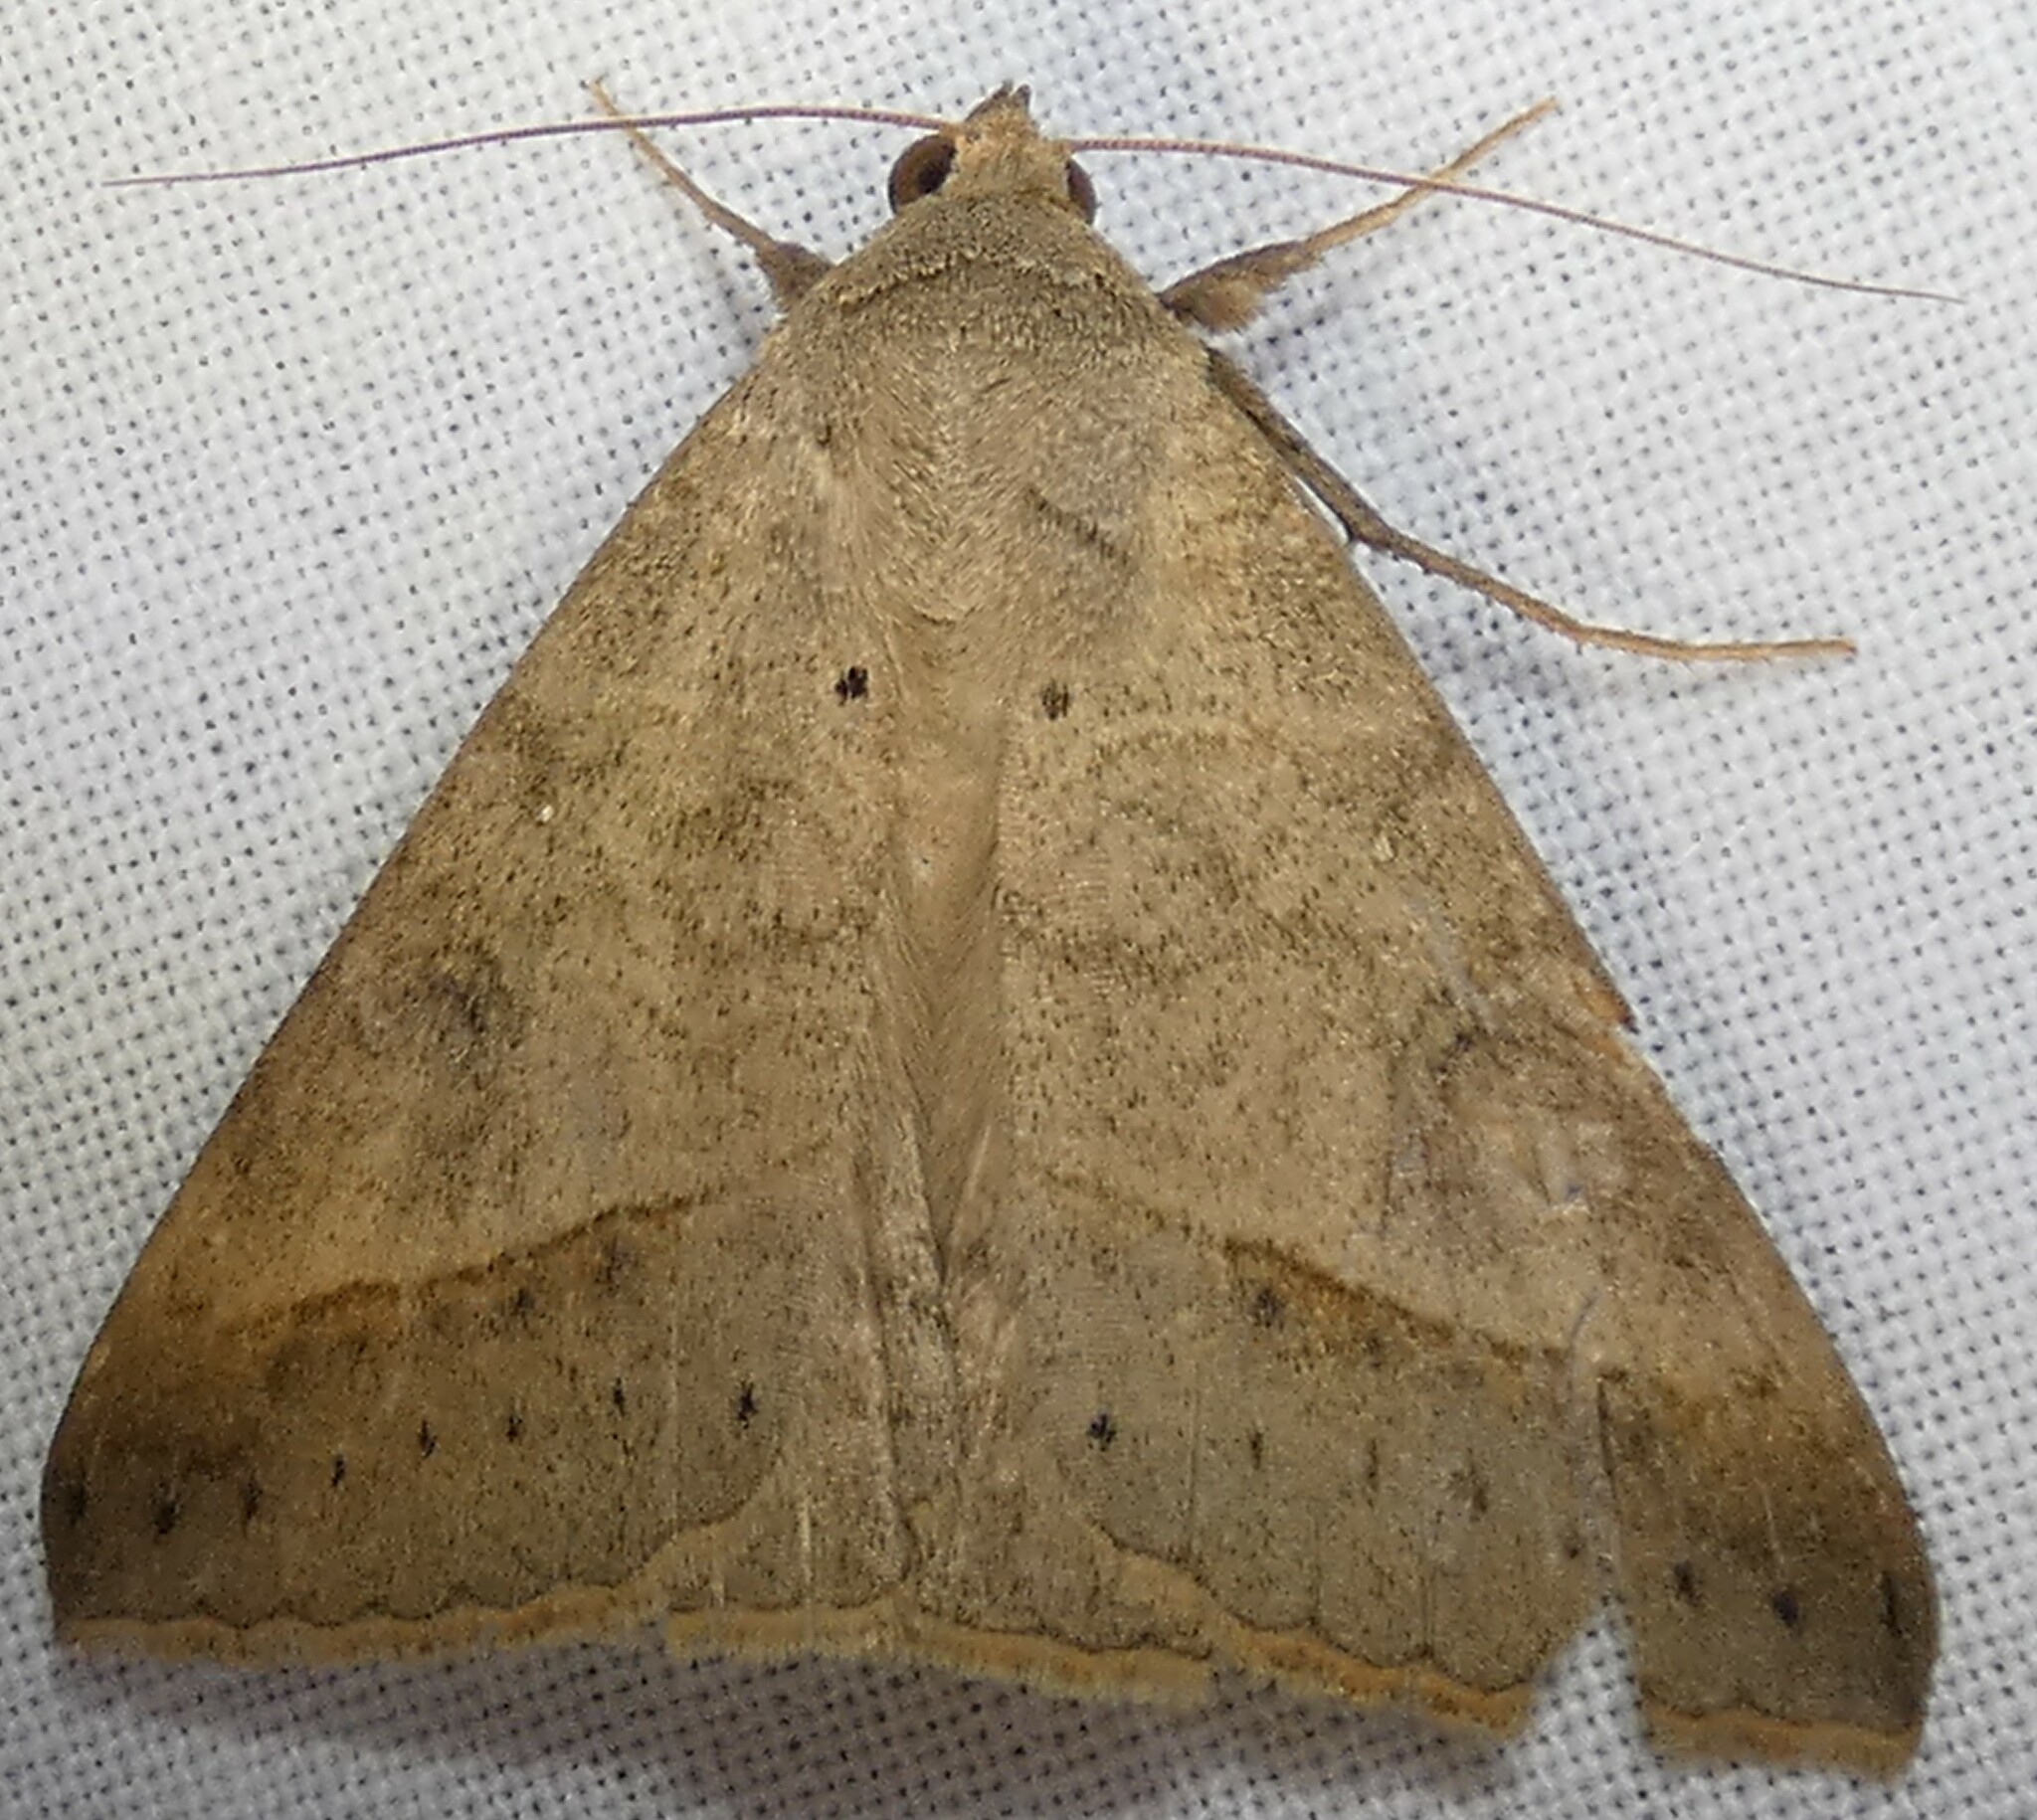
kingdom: Animalia
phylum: Arthropoda
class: Insecta
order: Lepidoptera
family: Erebidae
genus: Mocis
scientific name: Mocis latipes
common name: Striped grass looper
